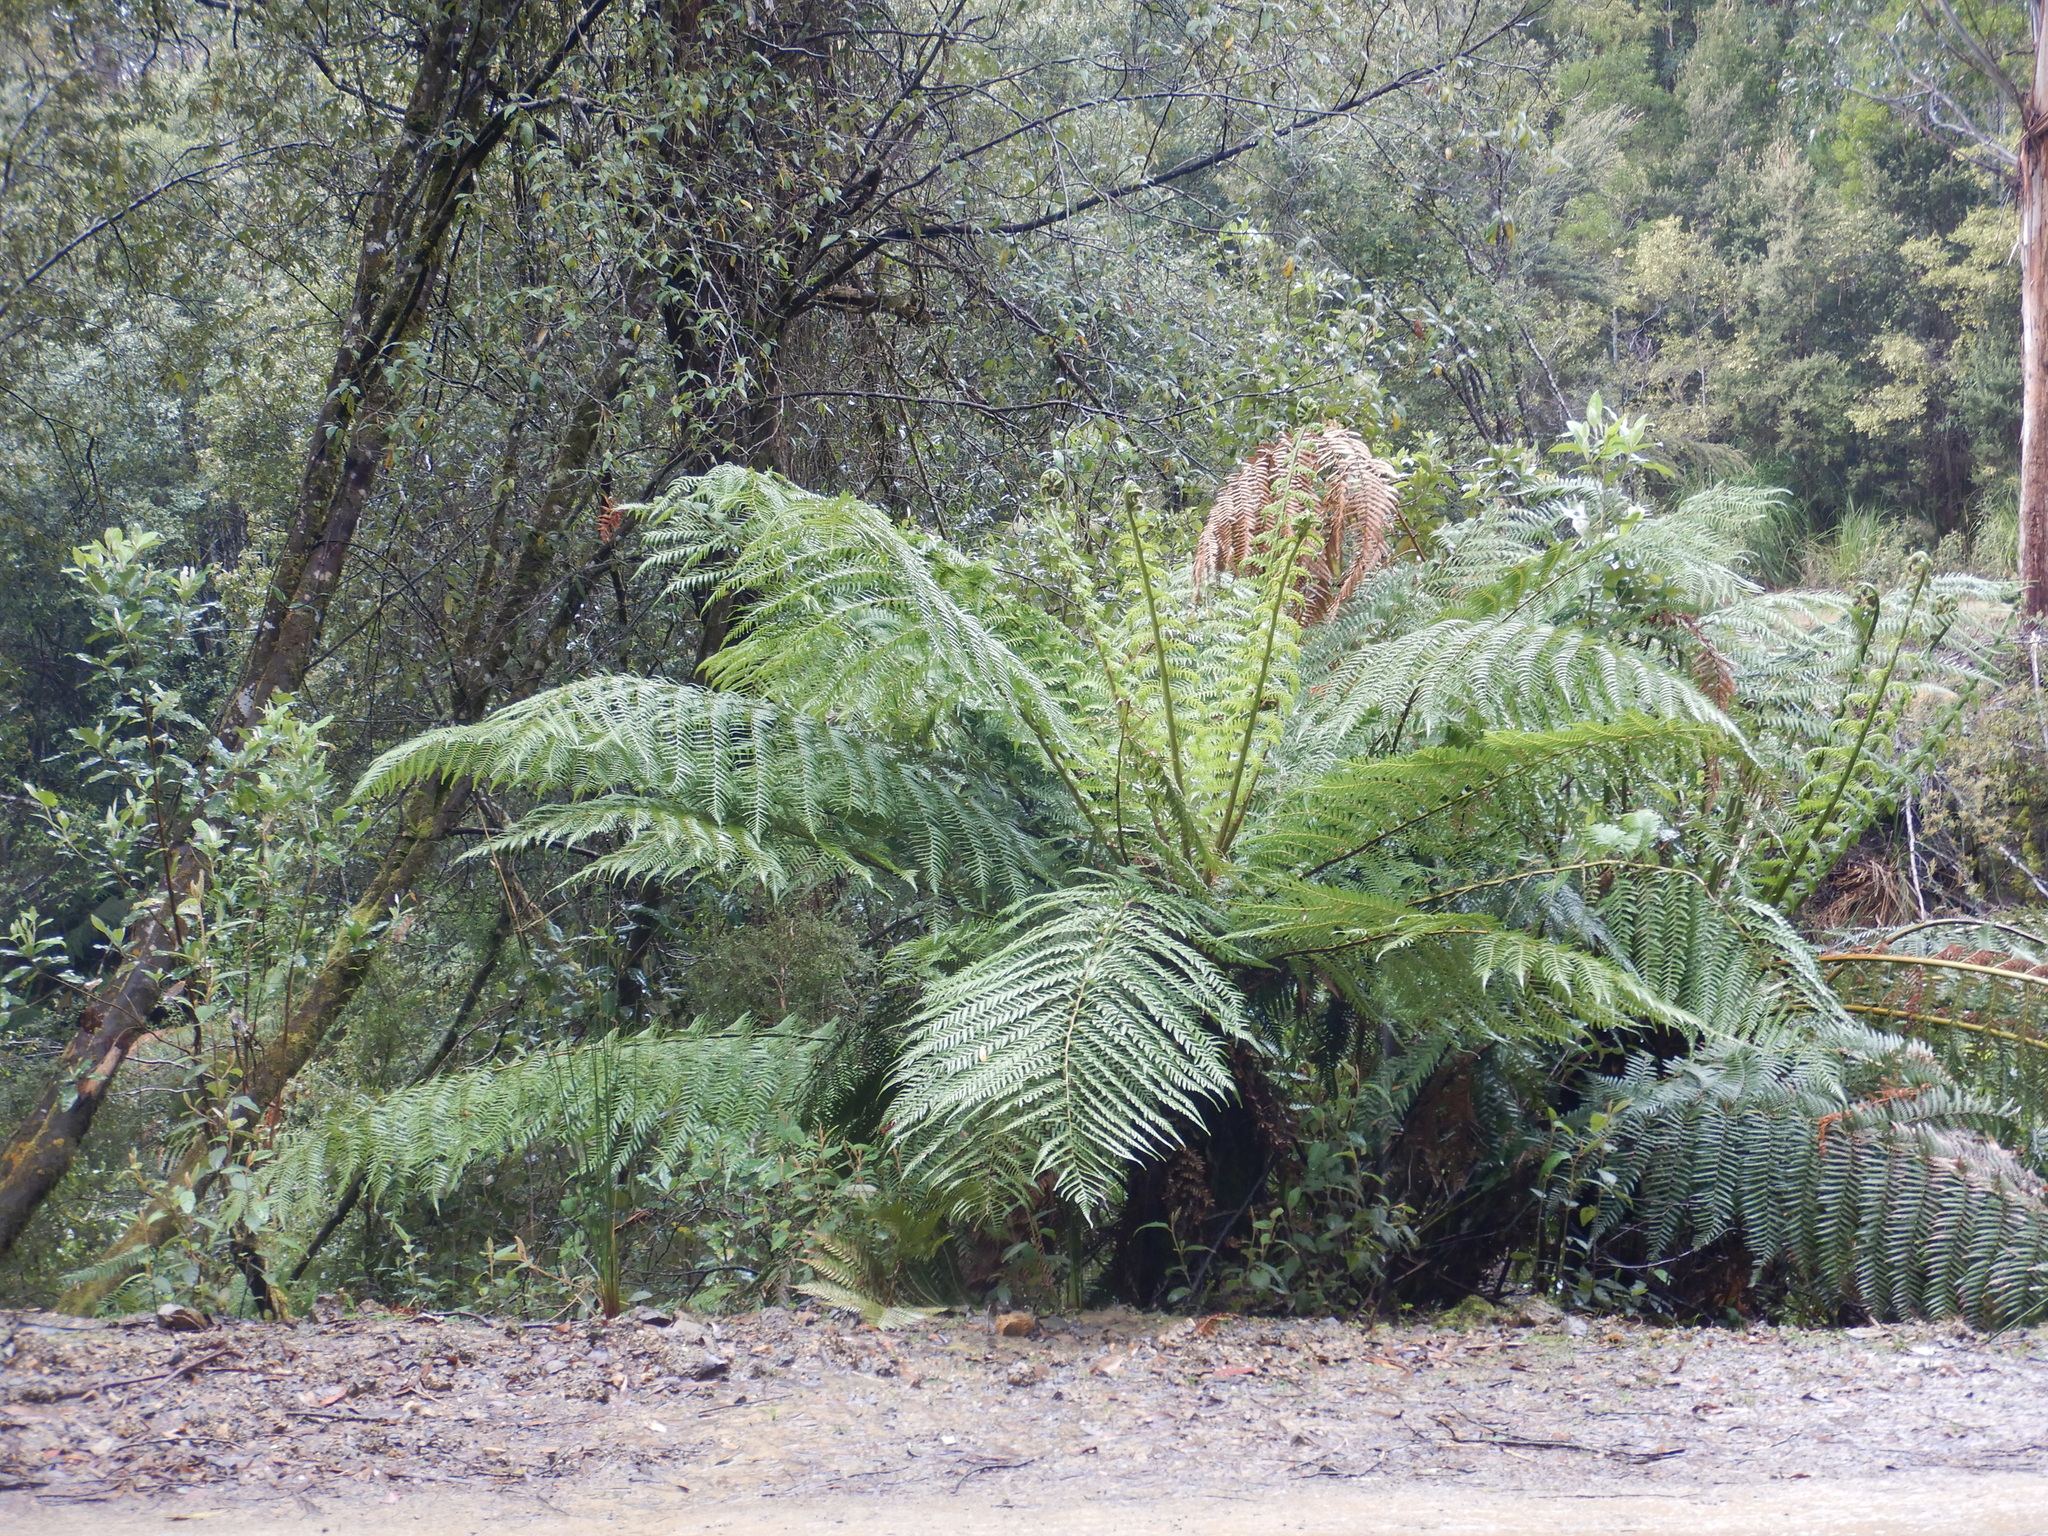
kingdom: Plantae
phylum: Tracheophyta
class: Polypodiopsida
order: Cyatheales
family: Dicksoniaceae
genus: Dicksonia
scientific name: Dicksonia antarctica
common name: Australian treefern
